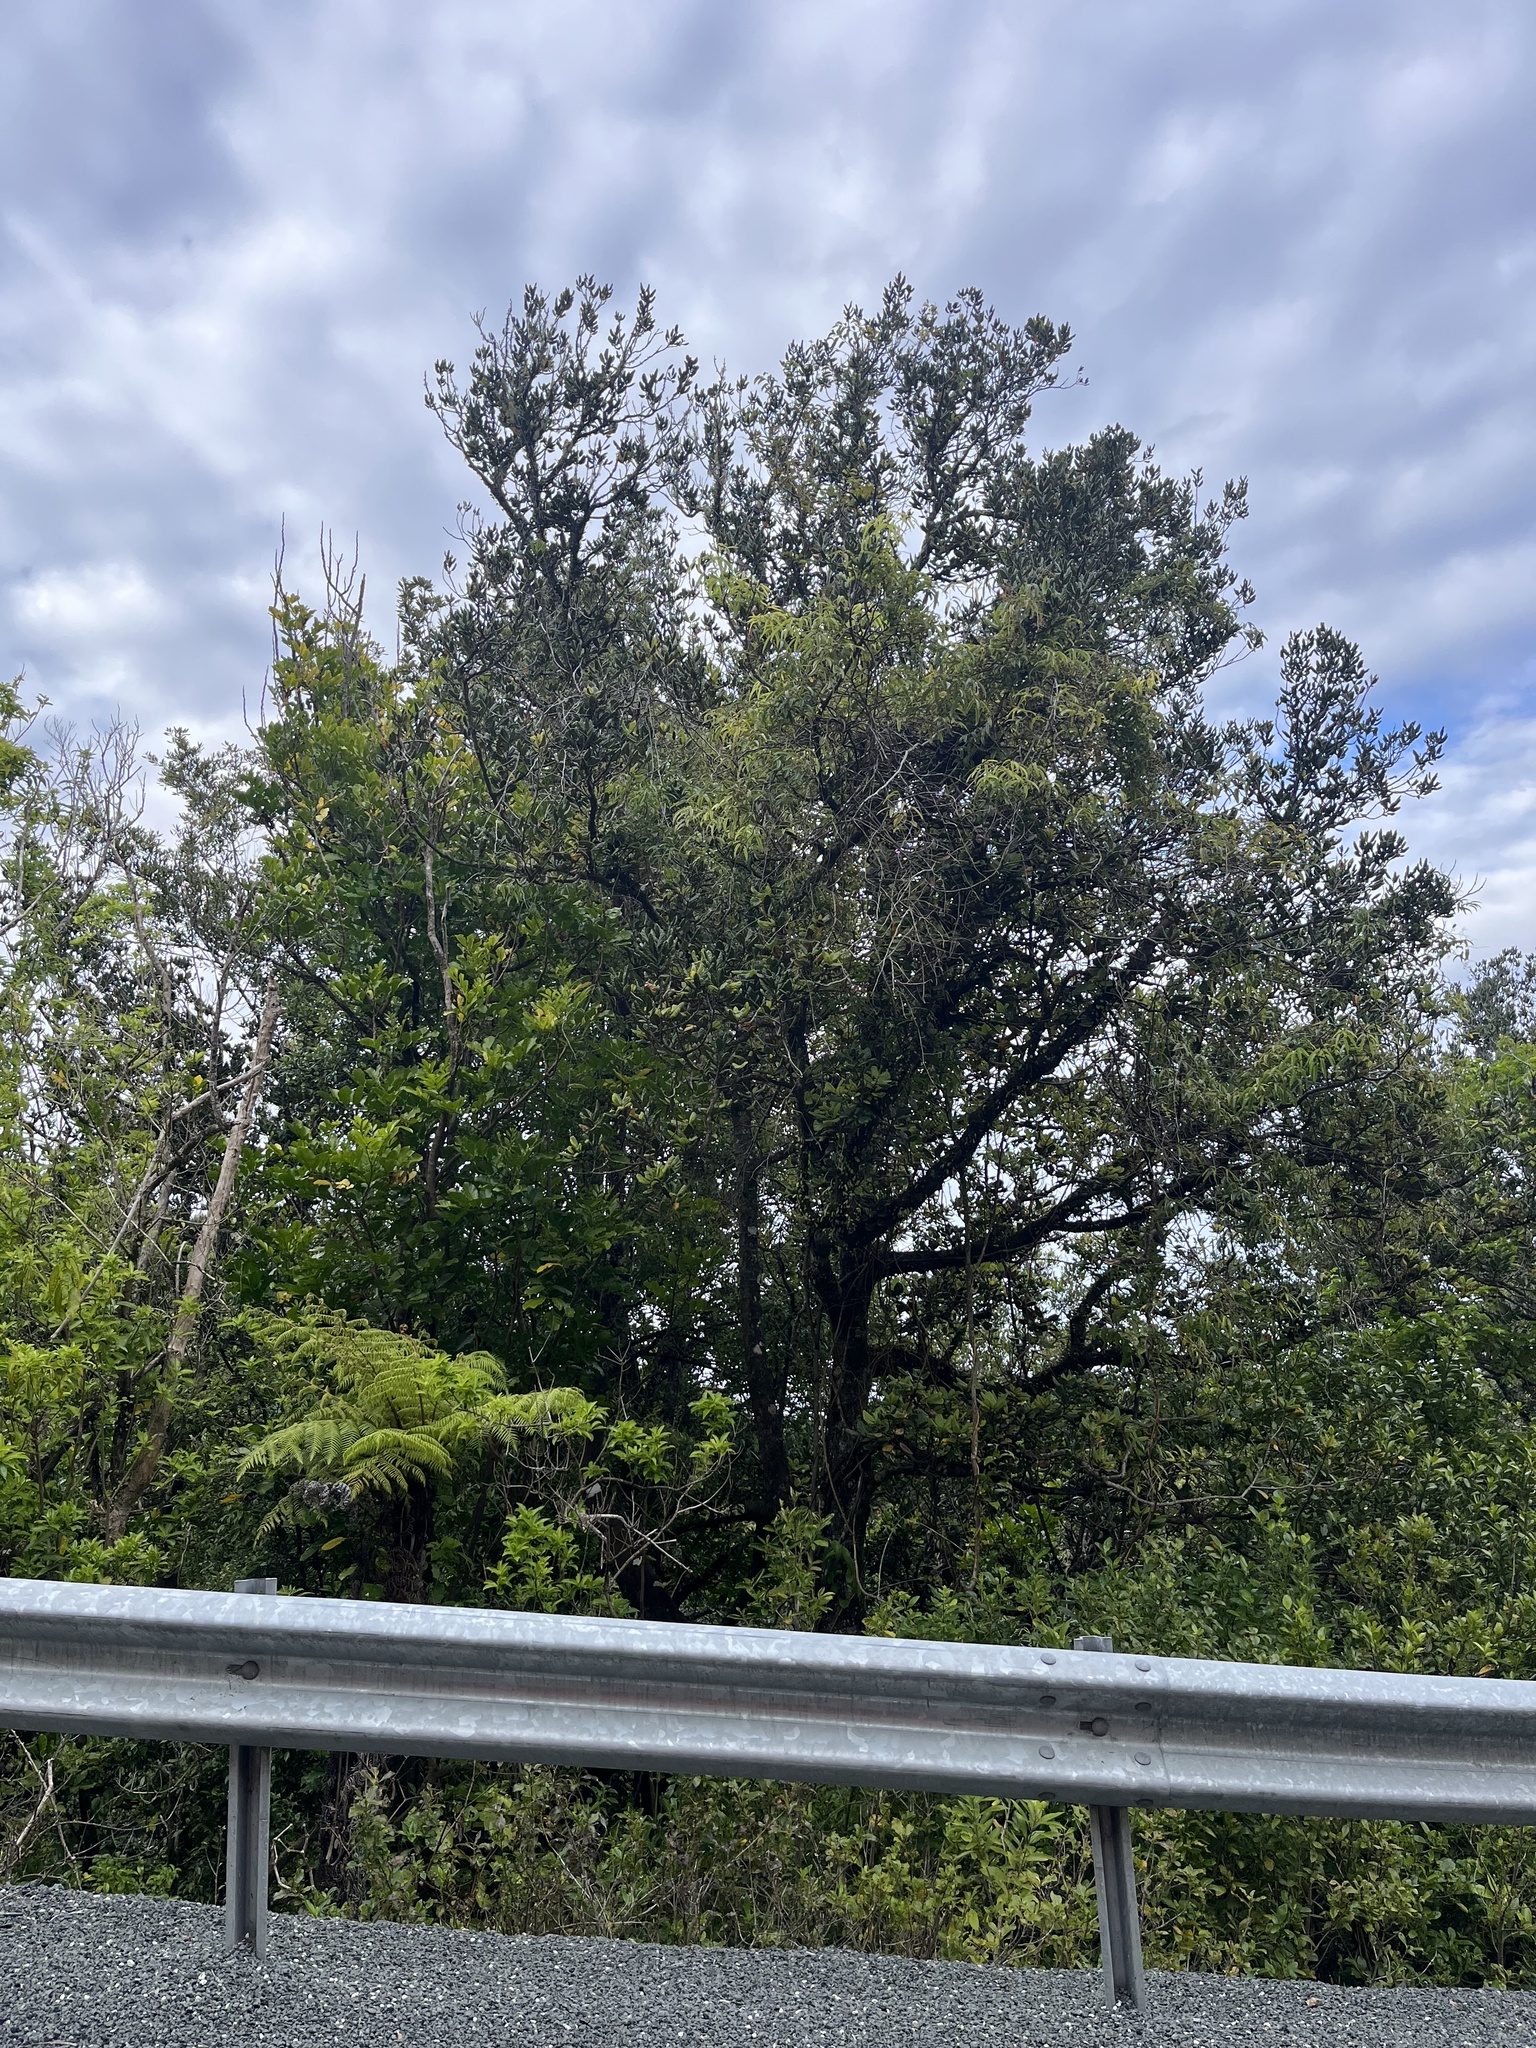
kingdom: Plantae
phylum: Tracheophyta
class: Magnoliopsida
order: Laurales
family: Lauraceae
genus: Beilschmiedia
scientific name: Beilschmiedia tarairi
